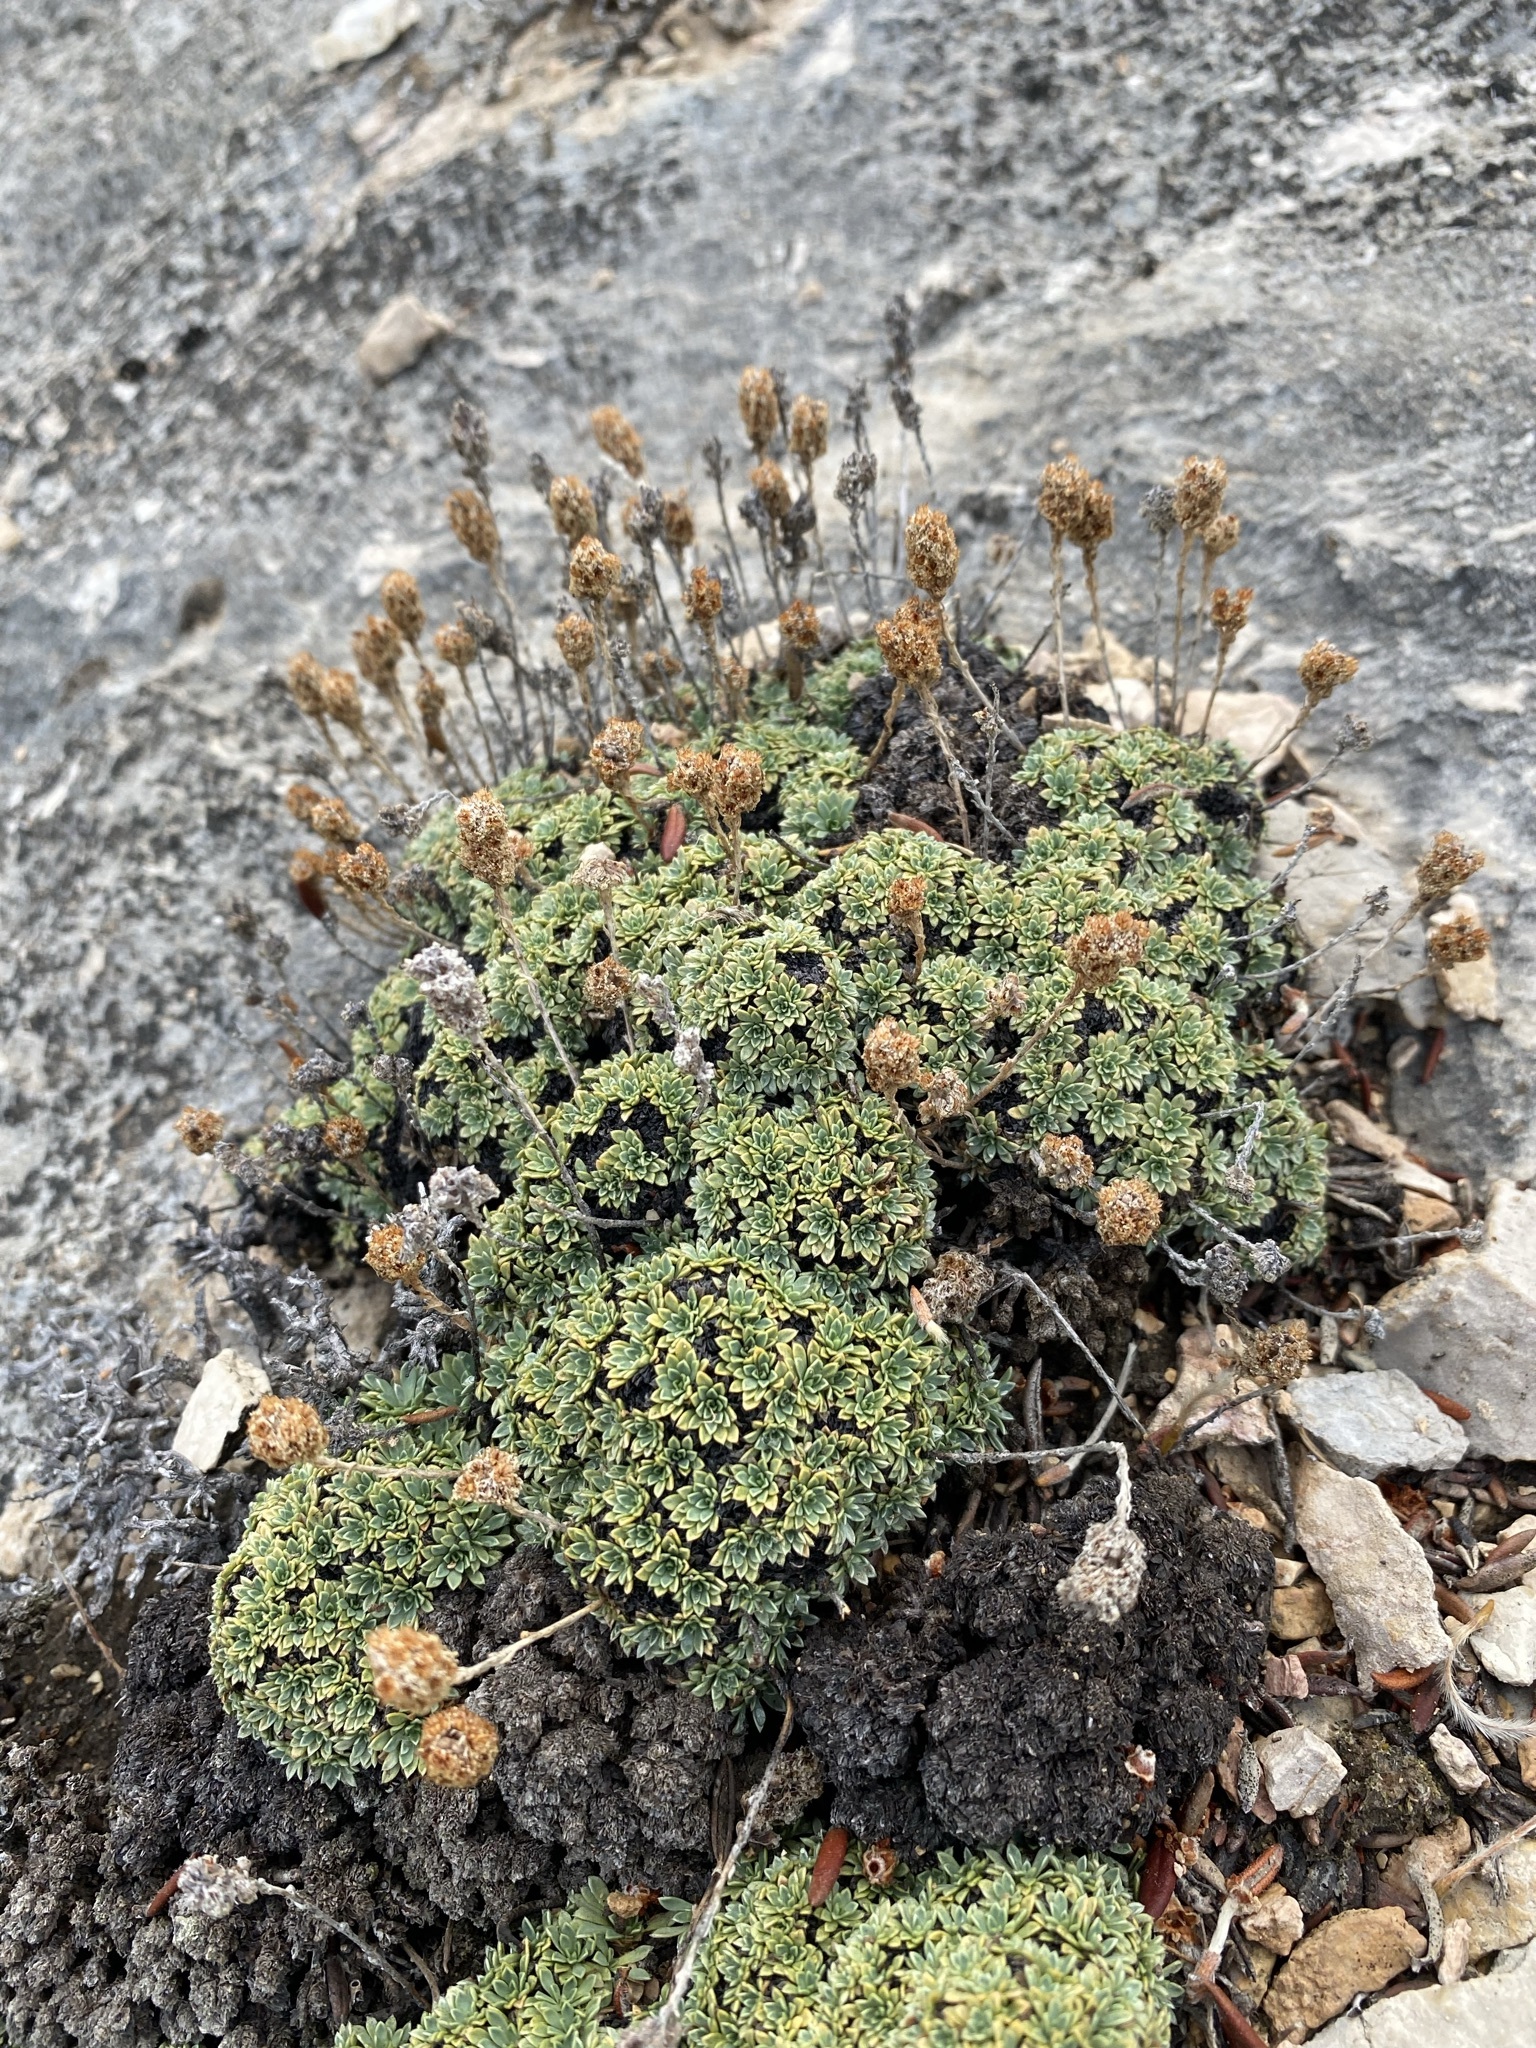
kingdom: Plantae
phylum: Tracheophyta
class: Magnoliopsida
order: Rosales
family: Rosaceae
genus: Petrophytum
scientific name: Petrophytum caespitosum
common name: Mat rockspirea
